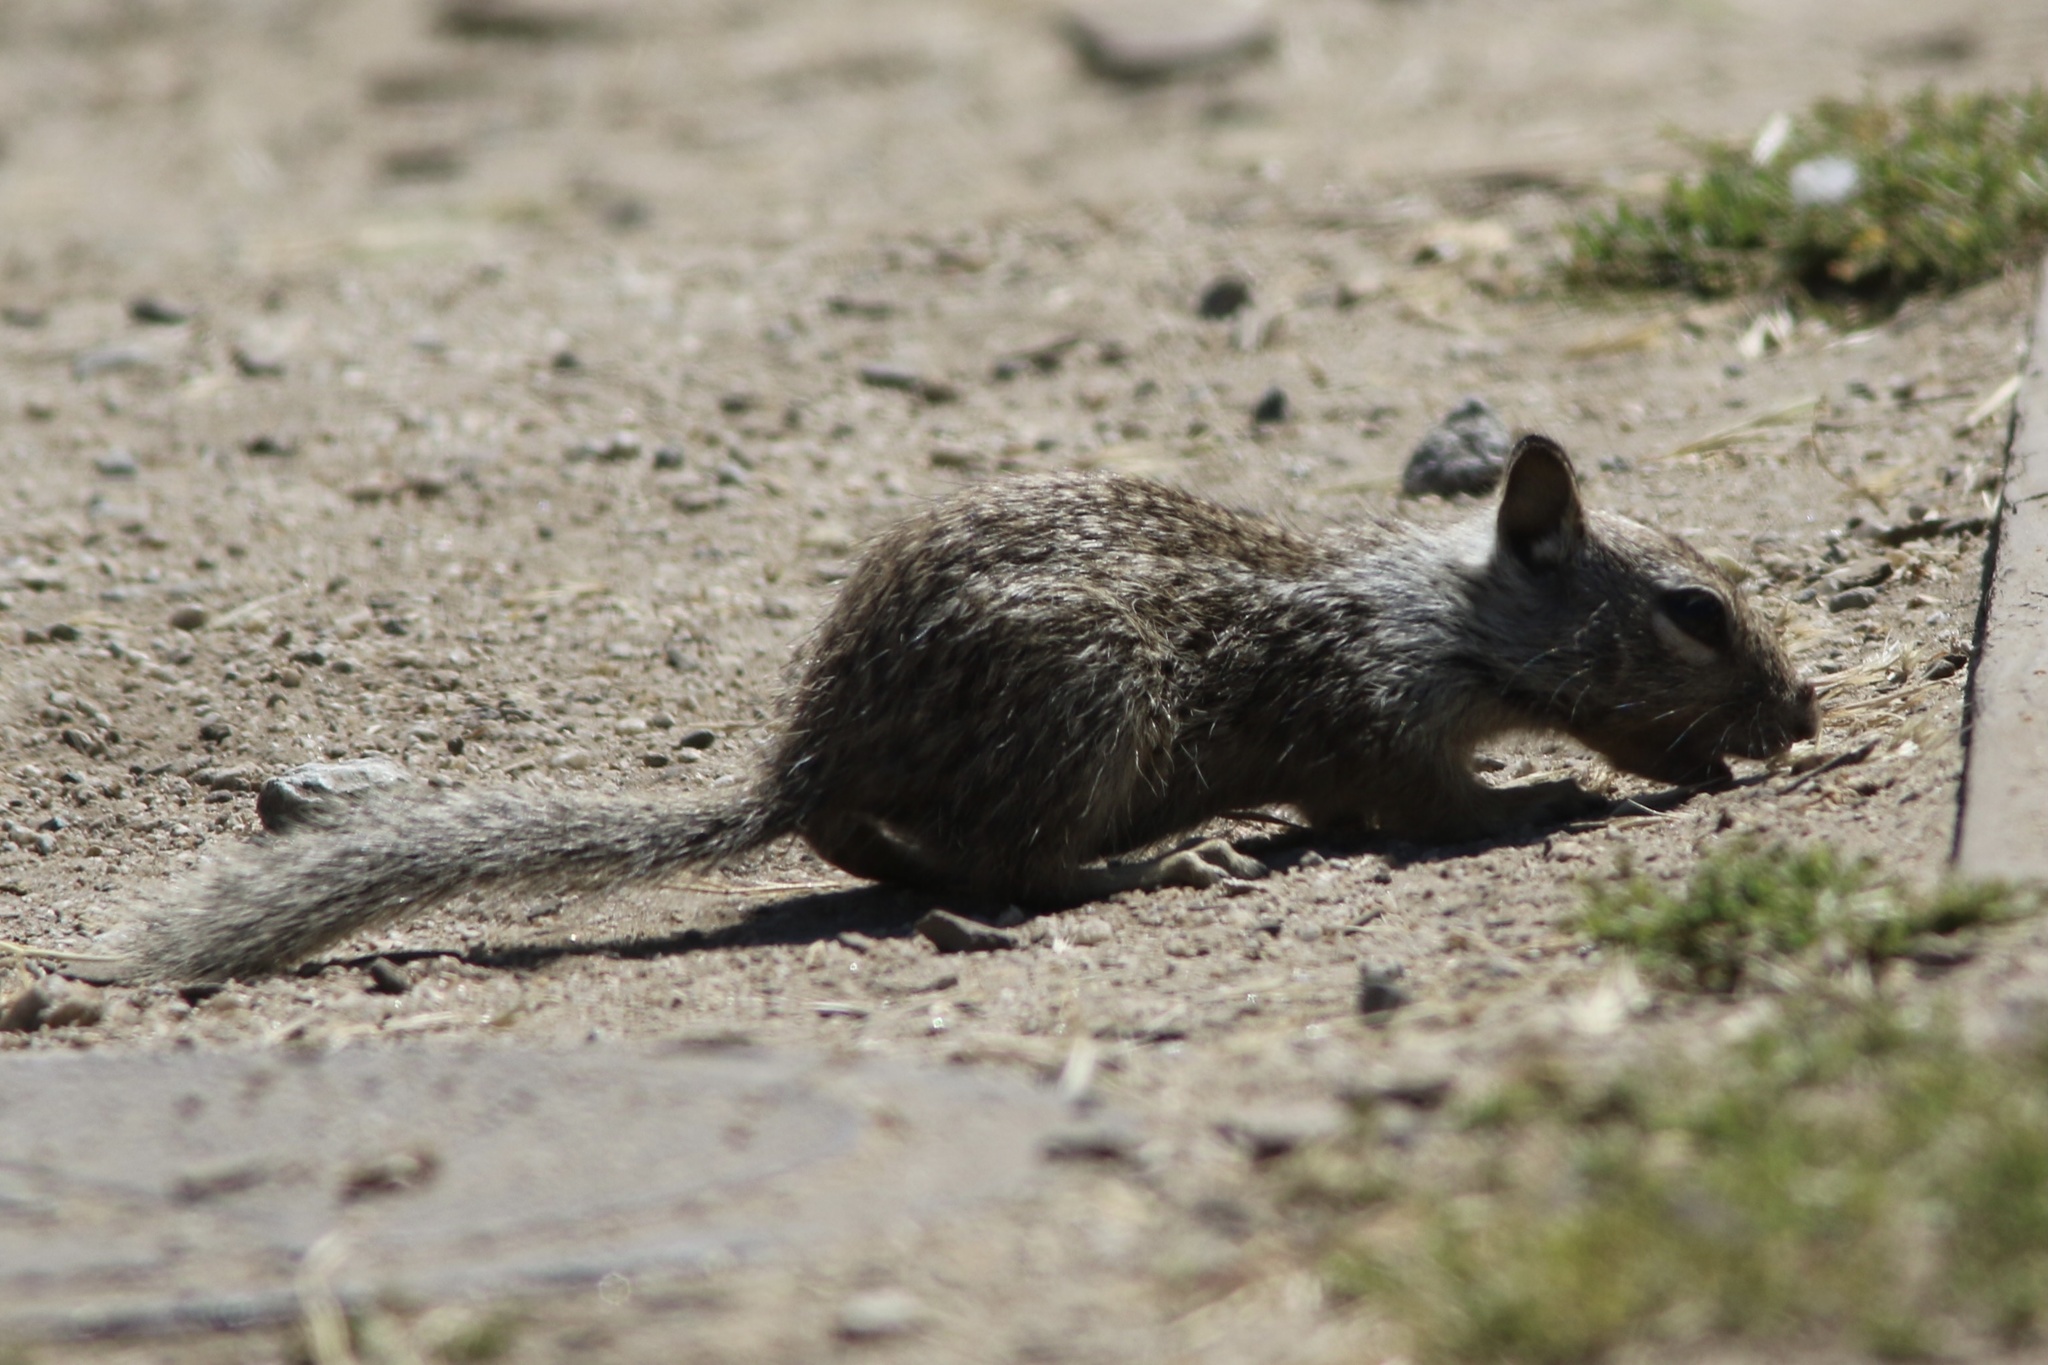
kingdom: Animalia
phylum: Chordata
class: Mammalia
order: Rodentia
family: Sciuridae
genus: Otospermophilus
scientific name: Otospermophilus beecheyi
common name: California ground squirrel
